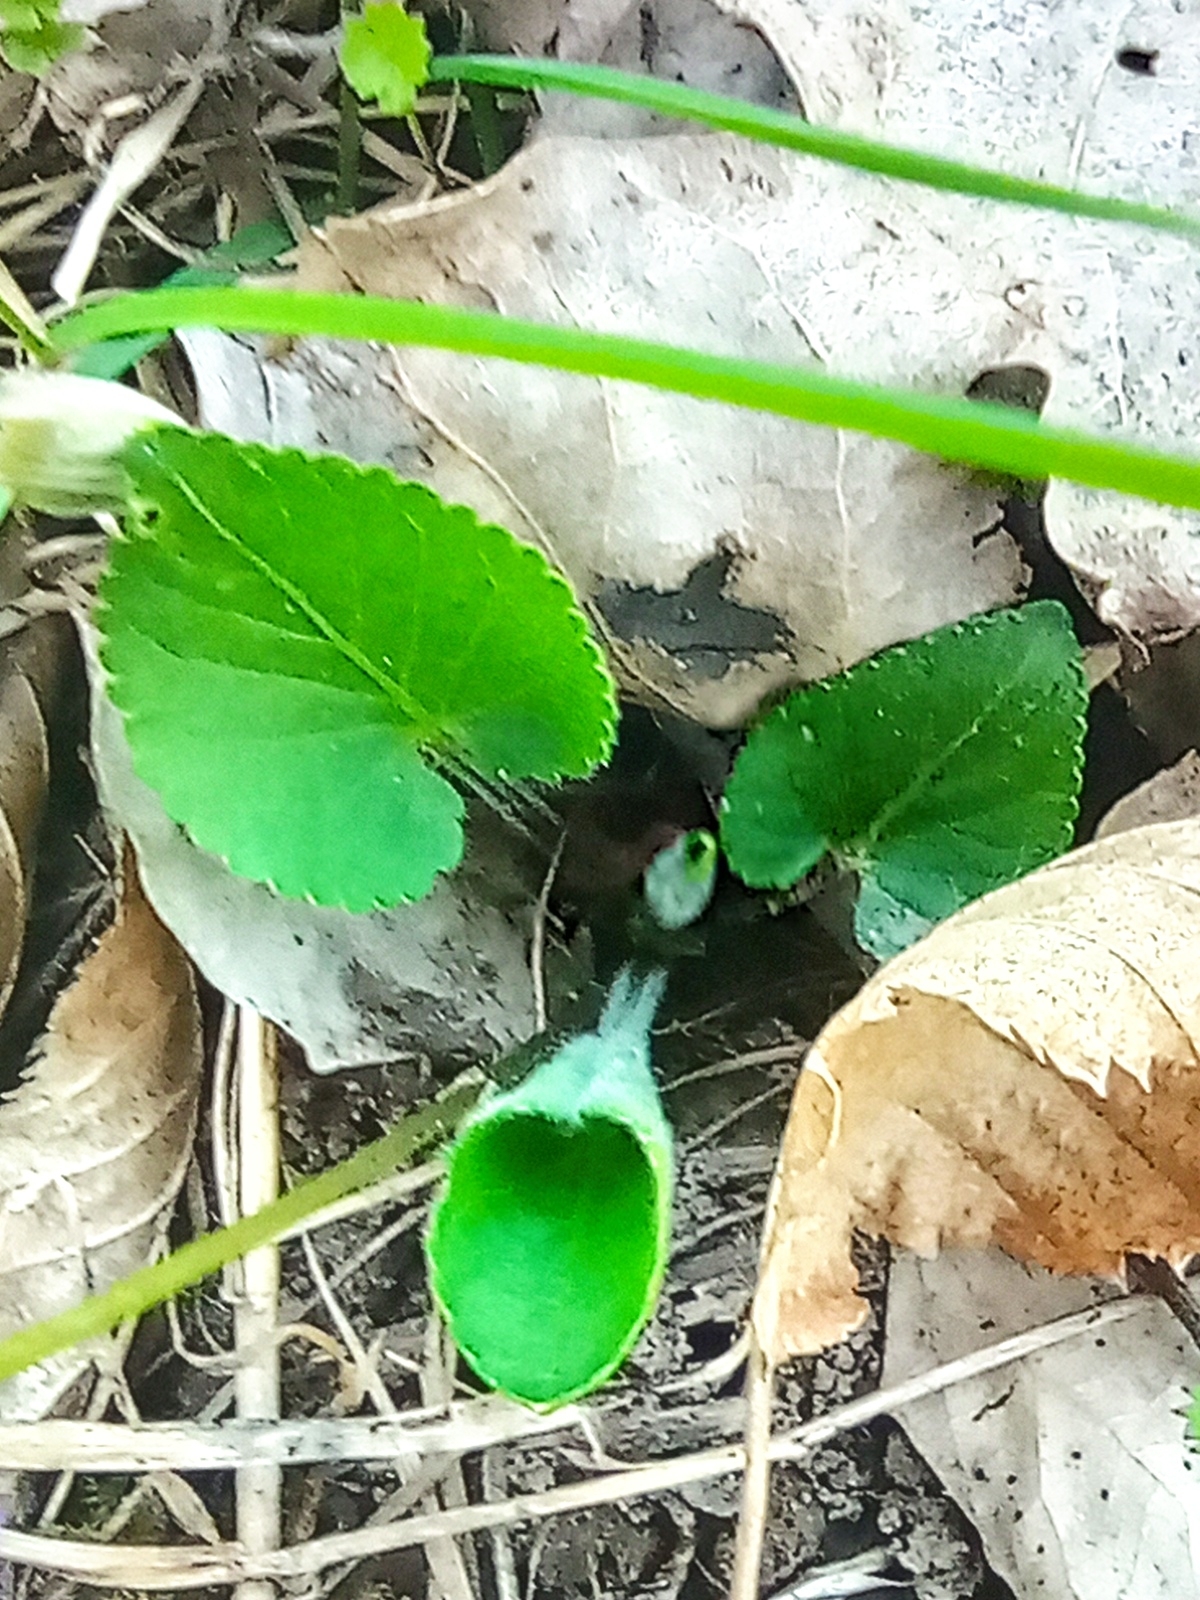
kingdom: Plantae
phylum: Tracheophyta
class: Magnoliopsida
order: Malpighiales
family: Violaceae
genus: Viola
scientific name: Viola hirta
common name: Hairy violet
